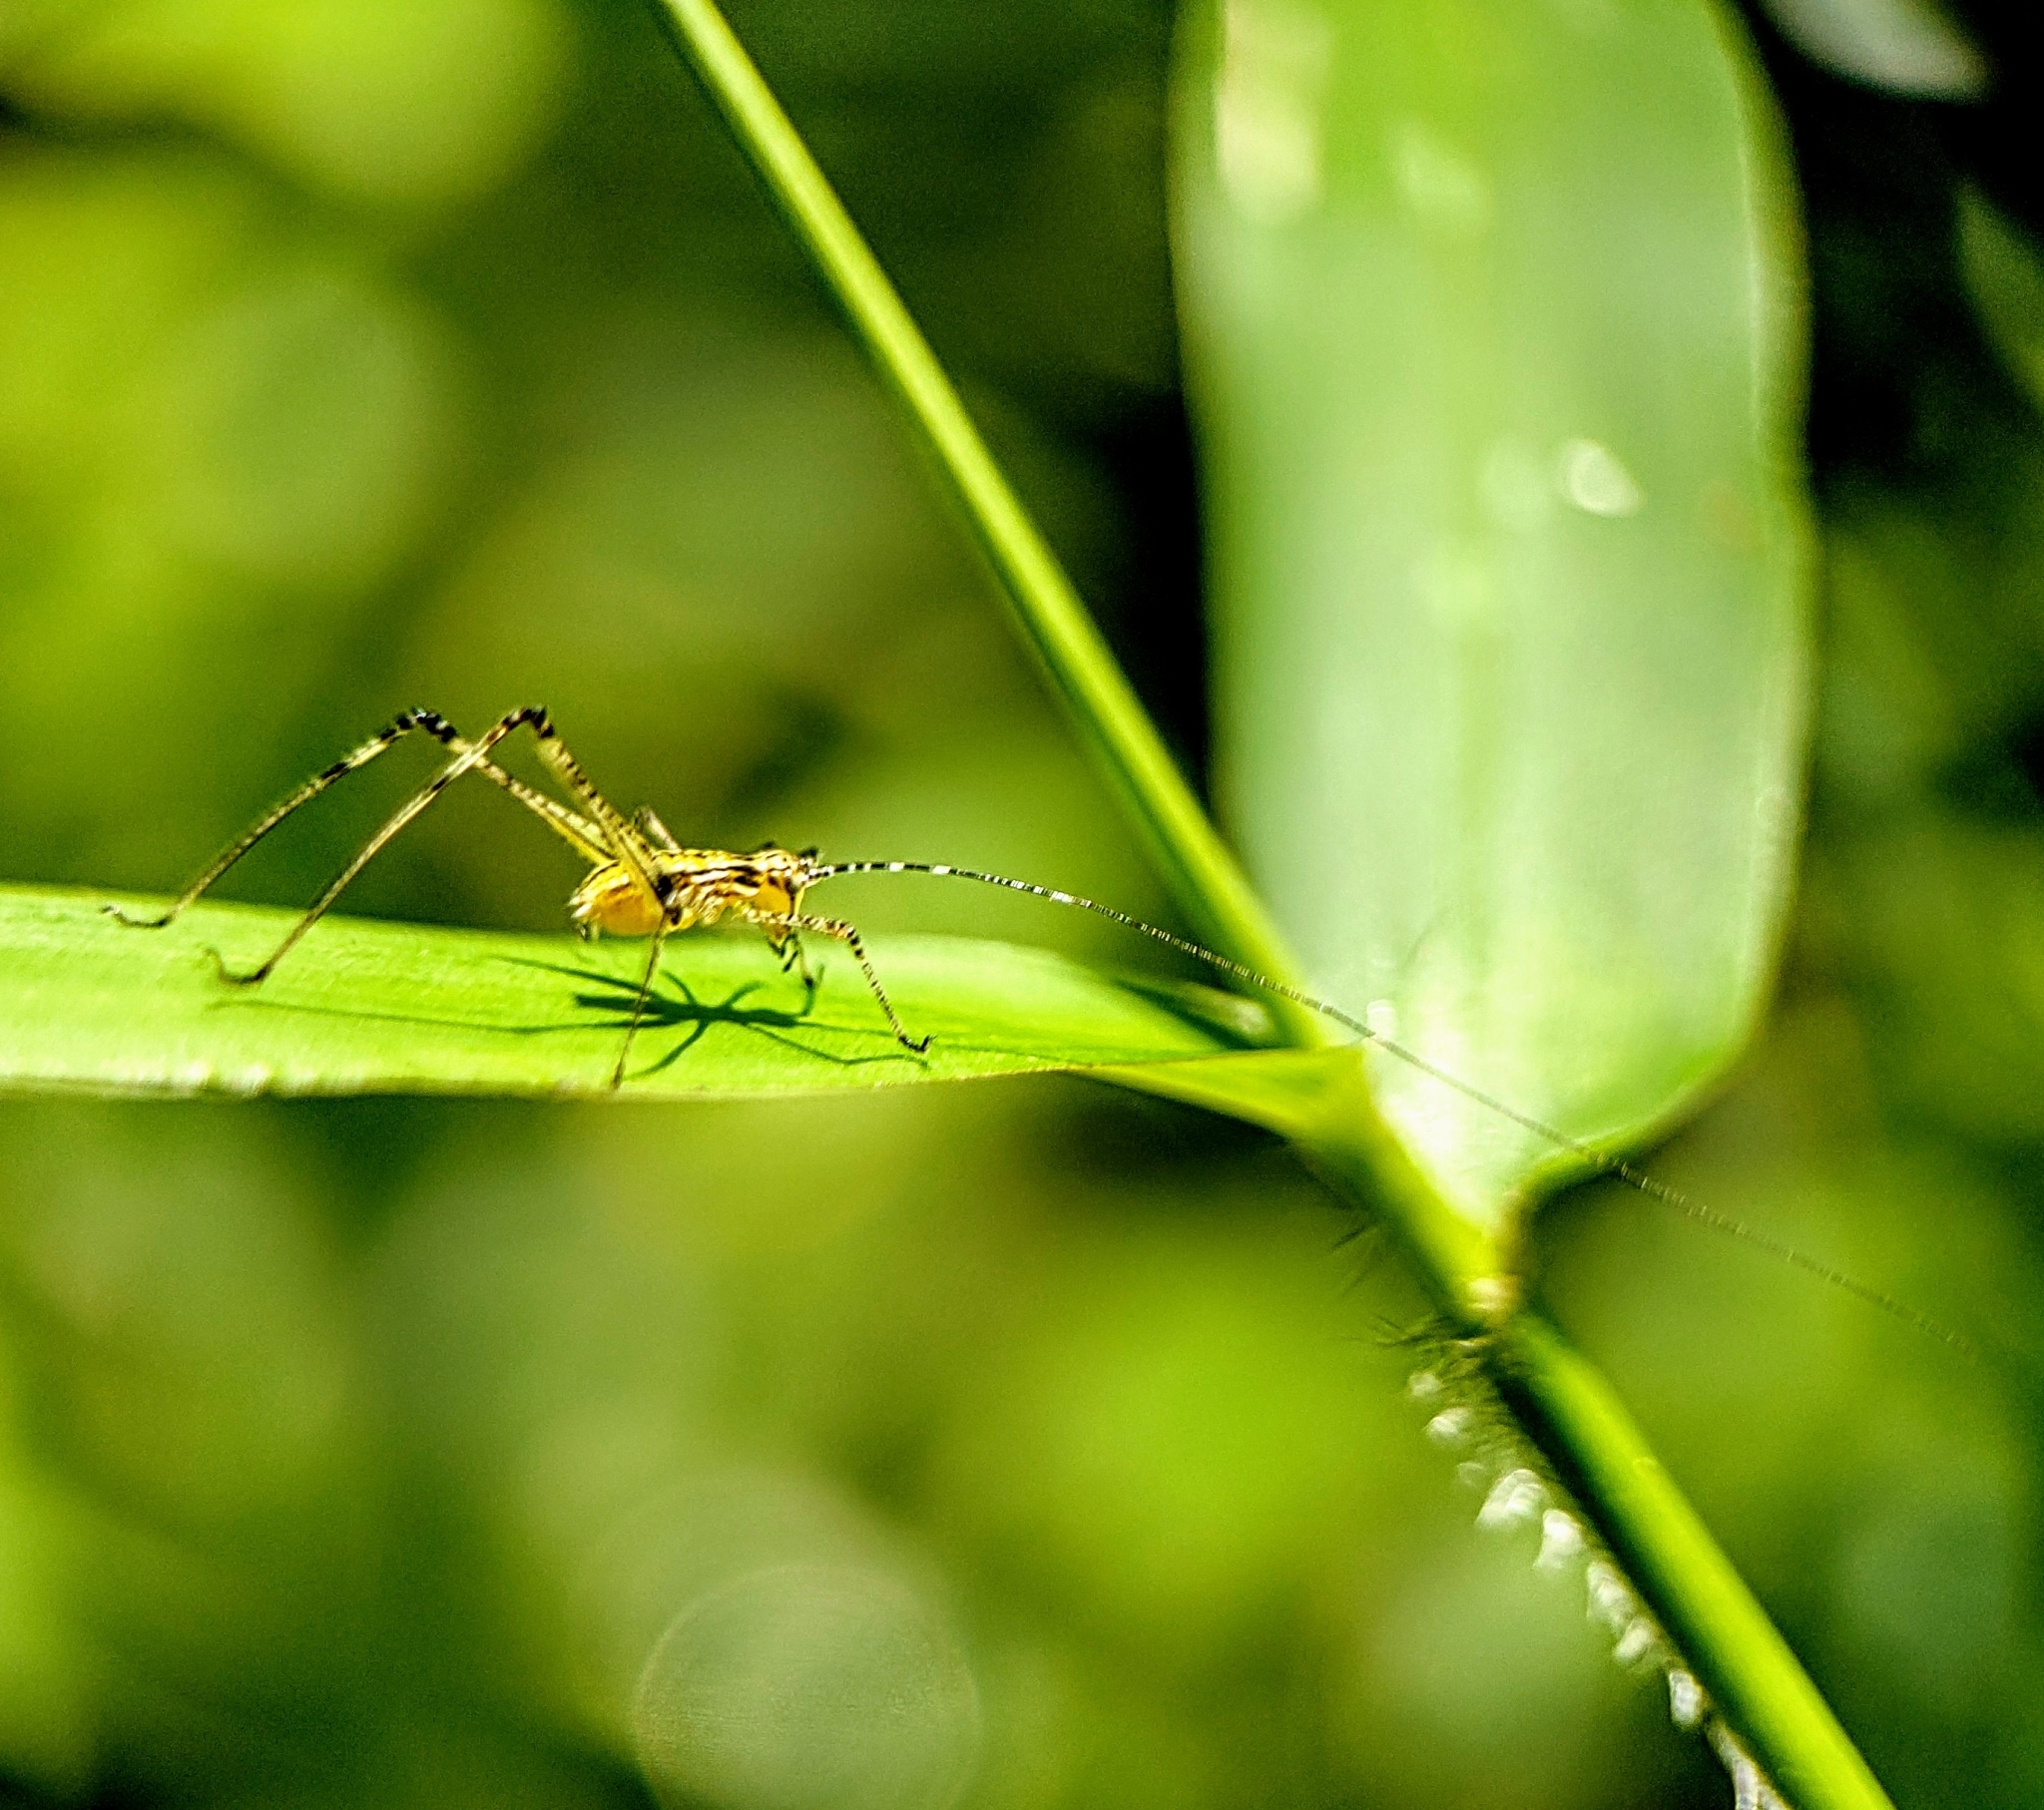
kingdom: Animalia
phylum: Arthropoda
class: Insecta
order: Orthoptera
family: Tettigoniidae
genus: Phaneroptera
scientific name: Phaneroptera brevis
